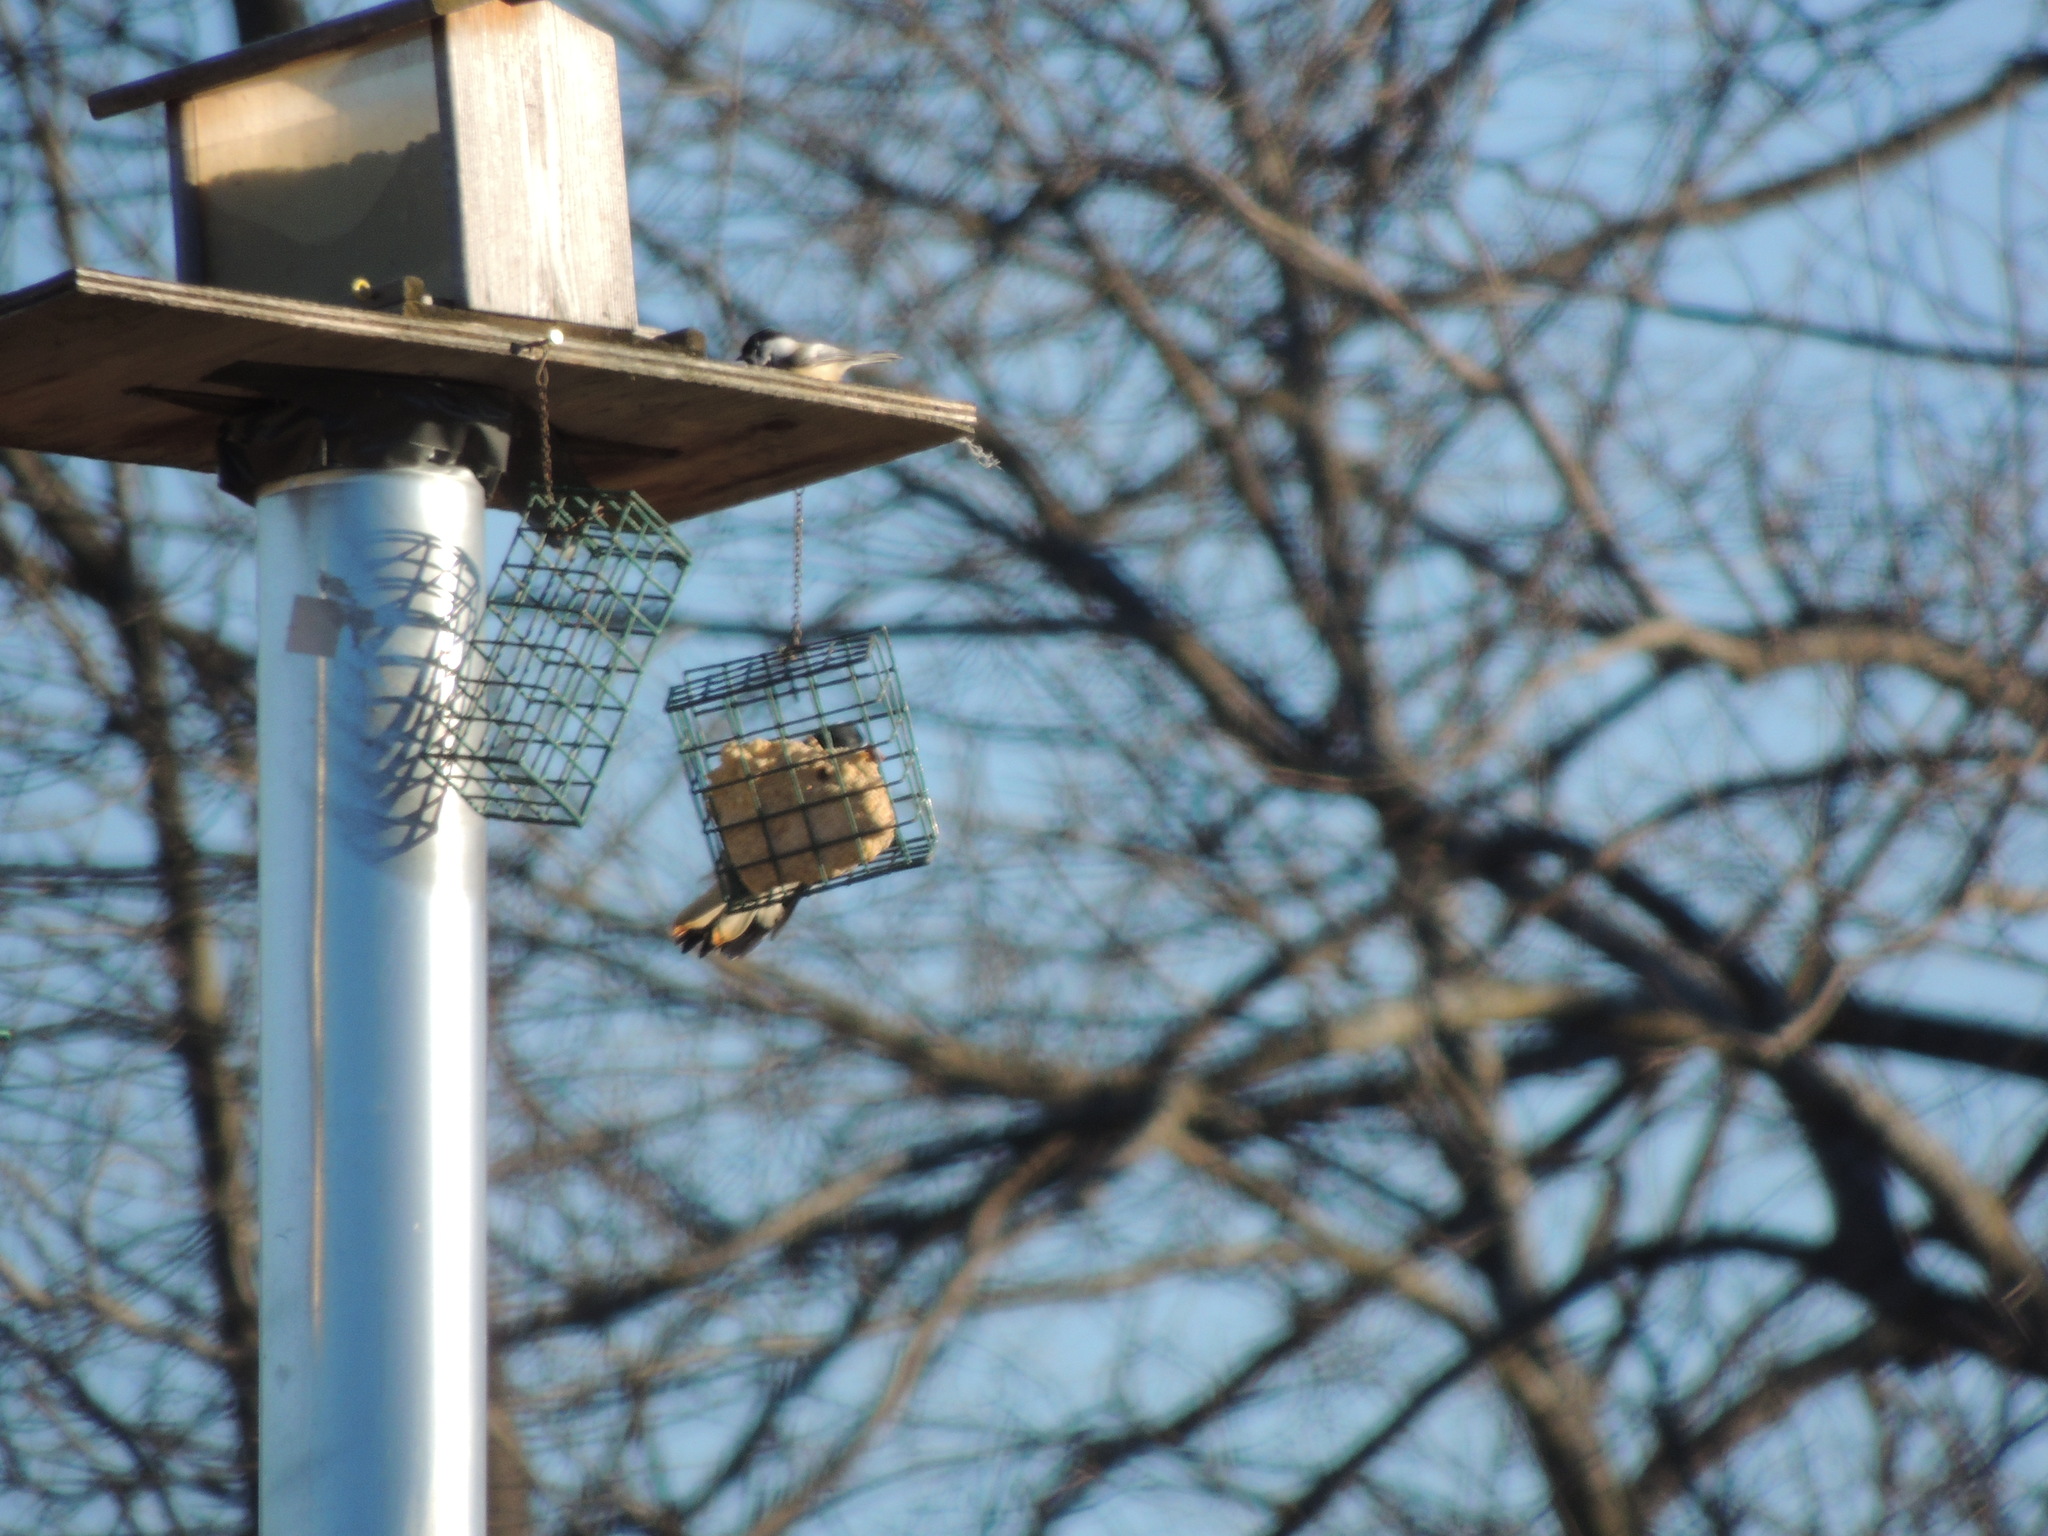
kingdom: Animalia
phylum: Chordata
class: Aves
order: Piciformes
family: Picidae
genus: Leuconotopicus
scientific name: Leuconotopicus villosus
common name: Hairy woodpecker
